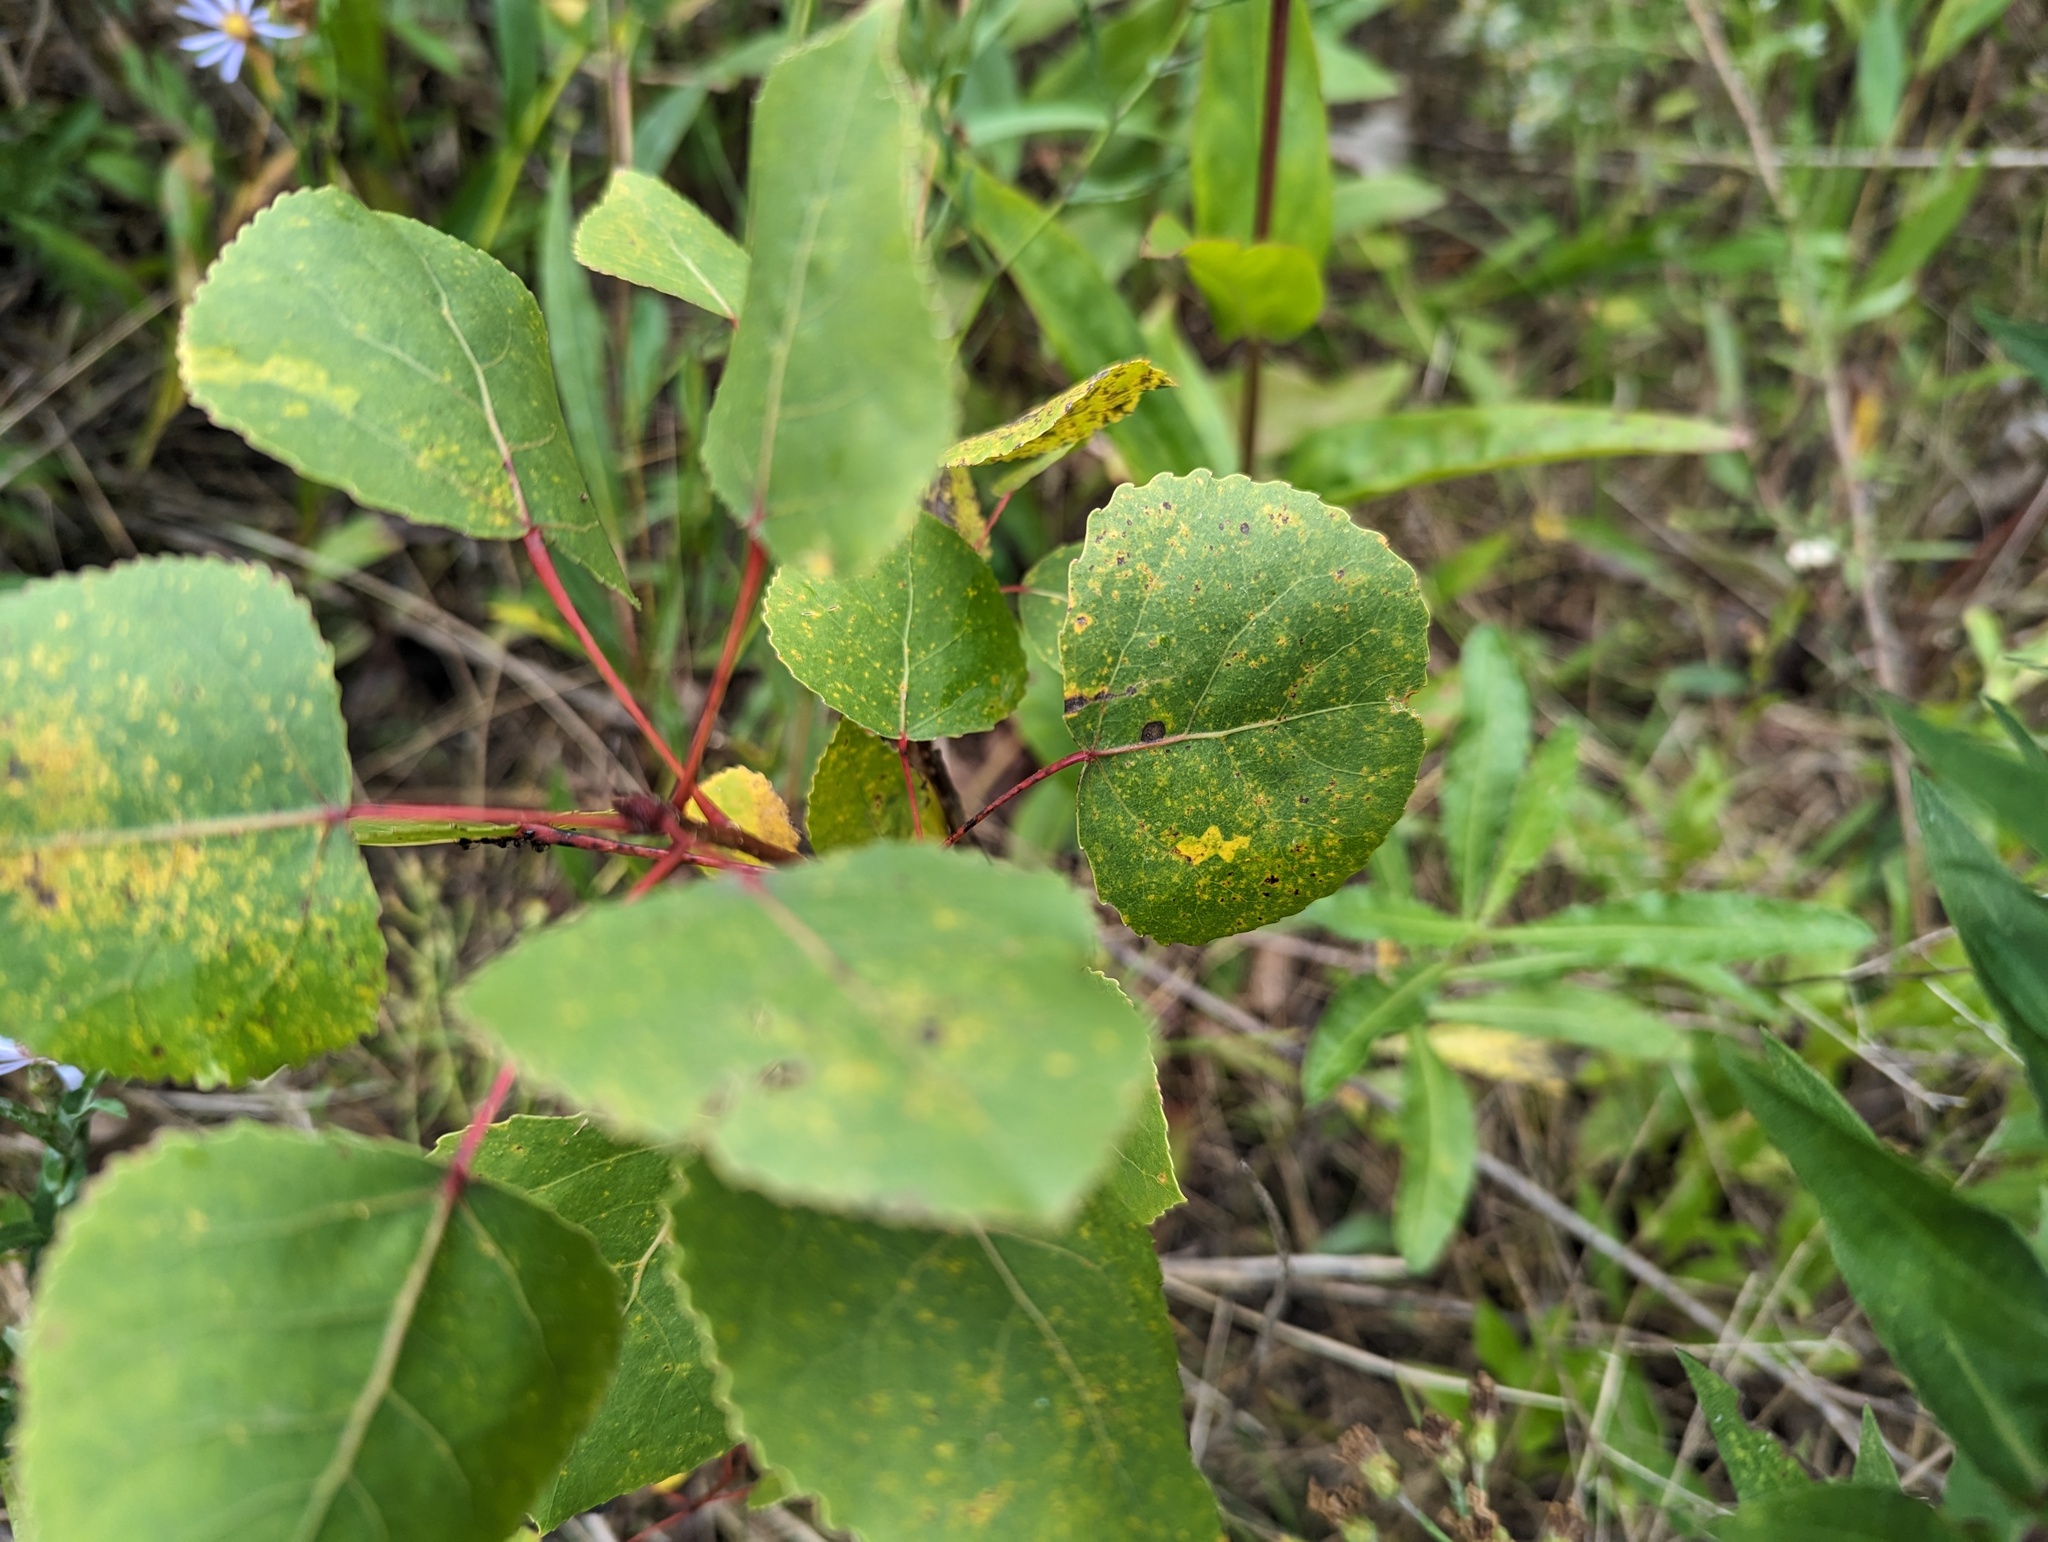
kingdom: Plantae
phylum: Tracheophyta
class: Magnoliopsida
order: Malpighiales
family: Salicaceae
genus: Populus
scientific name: Populus tremuloides
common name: Quaking aspen
